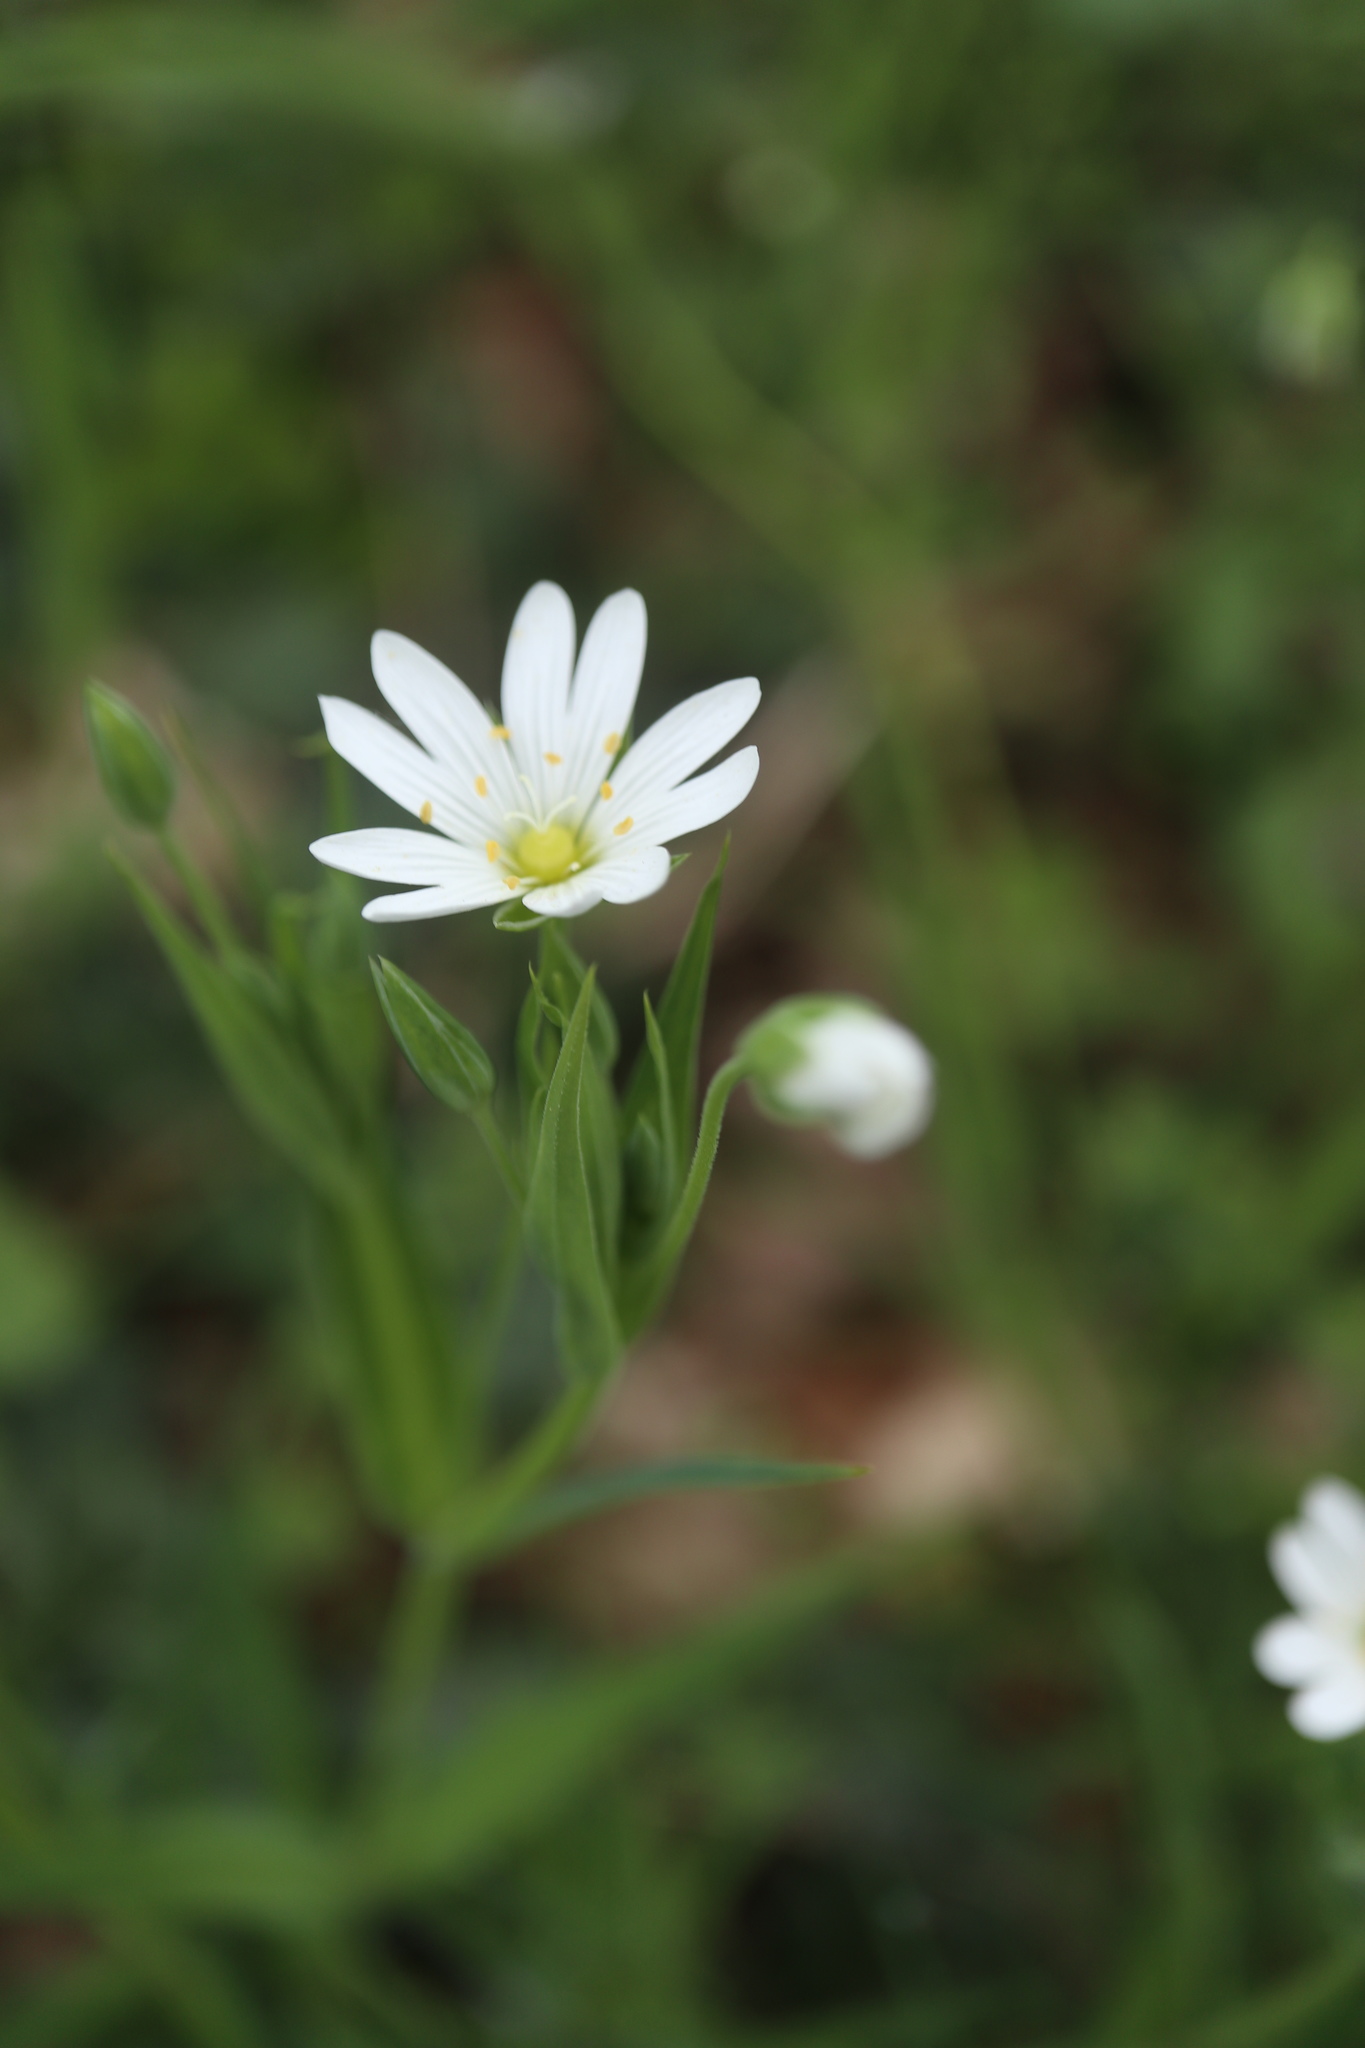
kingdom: Plantae
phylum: Tracheophyta
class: Magnoliopsida
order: Caryophyllales
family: Caryophyllaceae
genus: Rabelera
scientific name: Rabelera holostea
